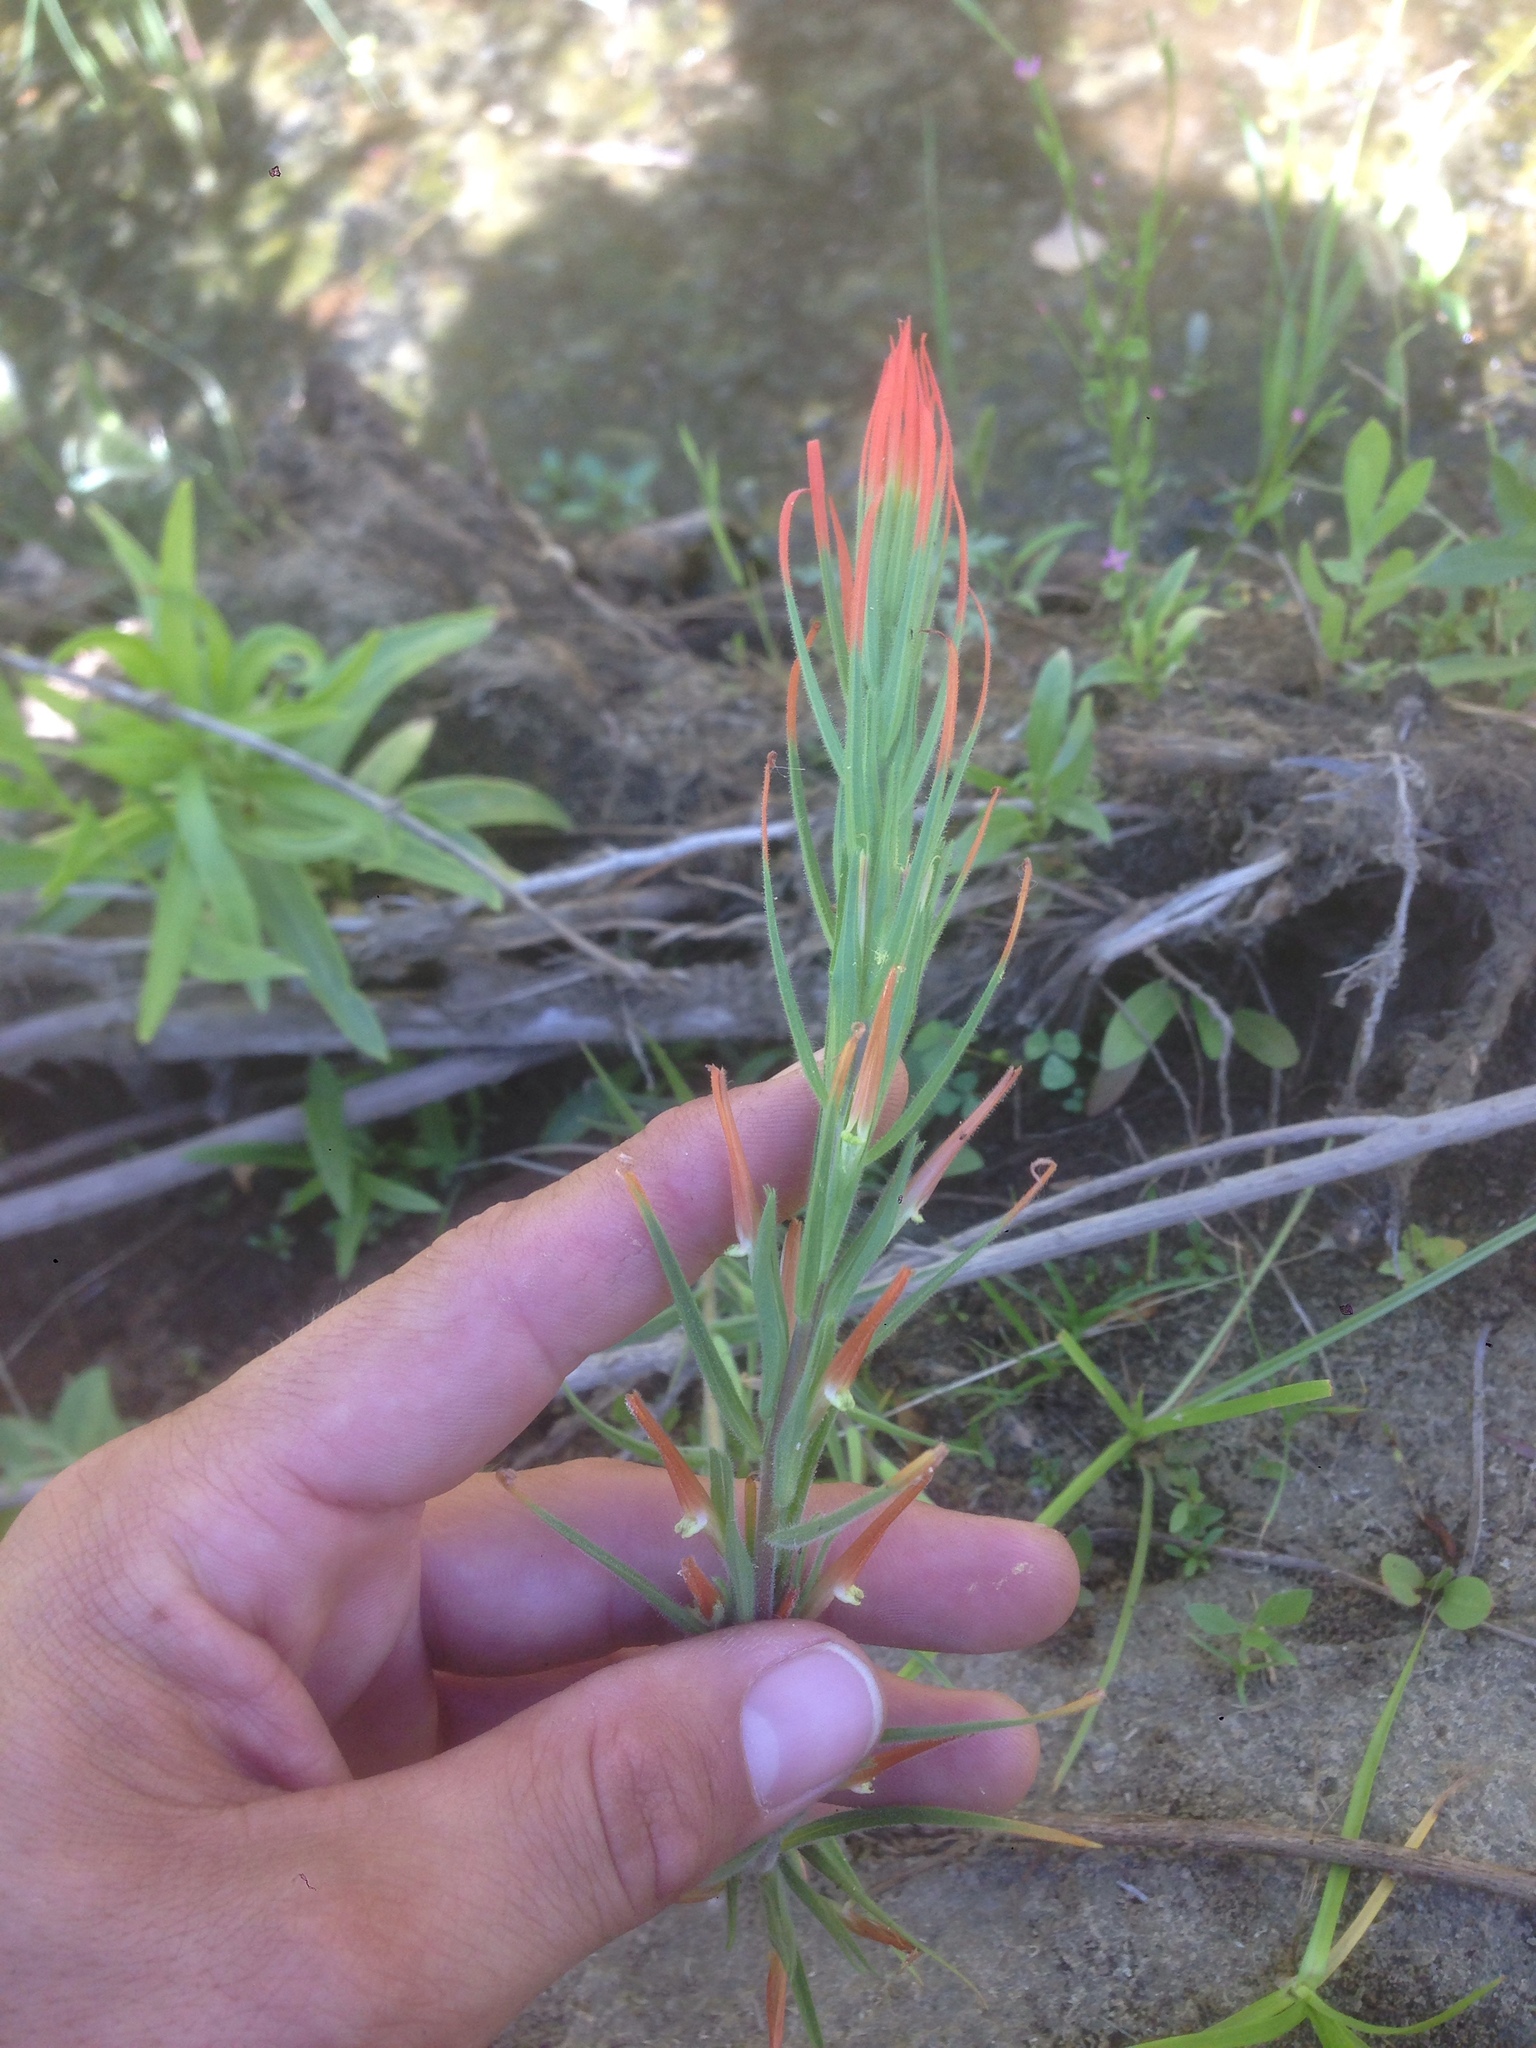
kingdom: Plantae
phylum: Tracheophyta
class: Magnoliopsida
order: Lamiales
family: Orobanchaceae
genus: Castilleja
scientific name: Castilleja minor
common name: Seep paintbrush
